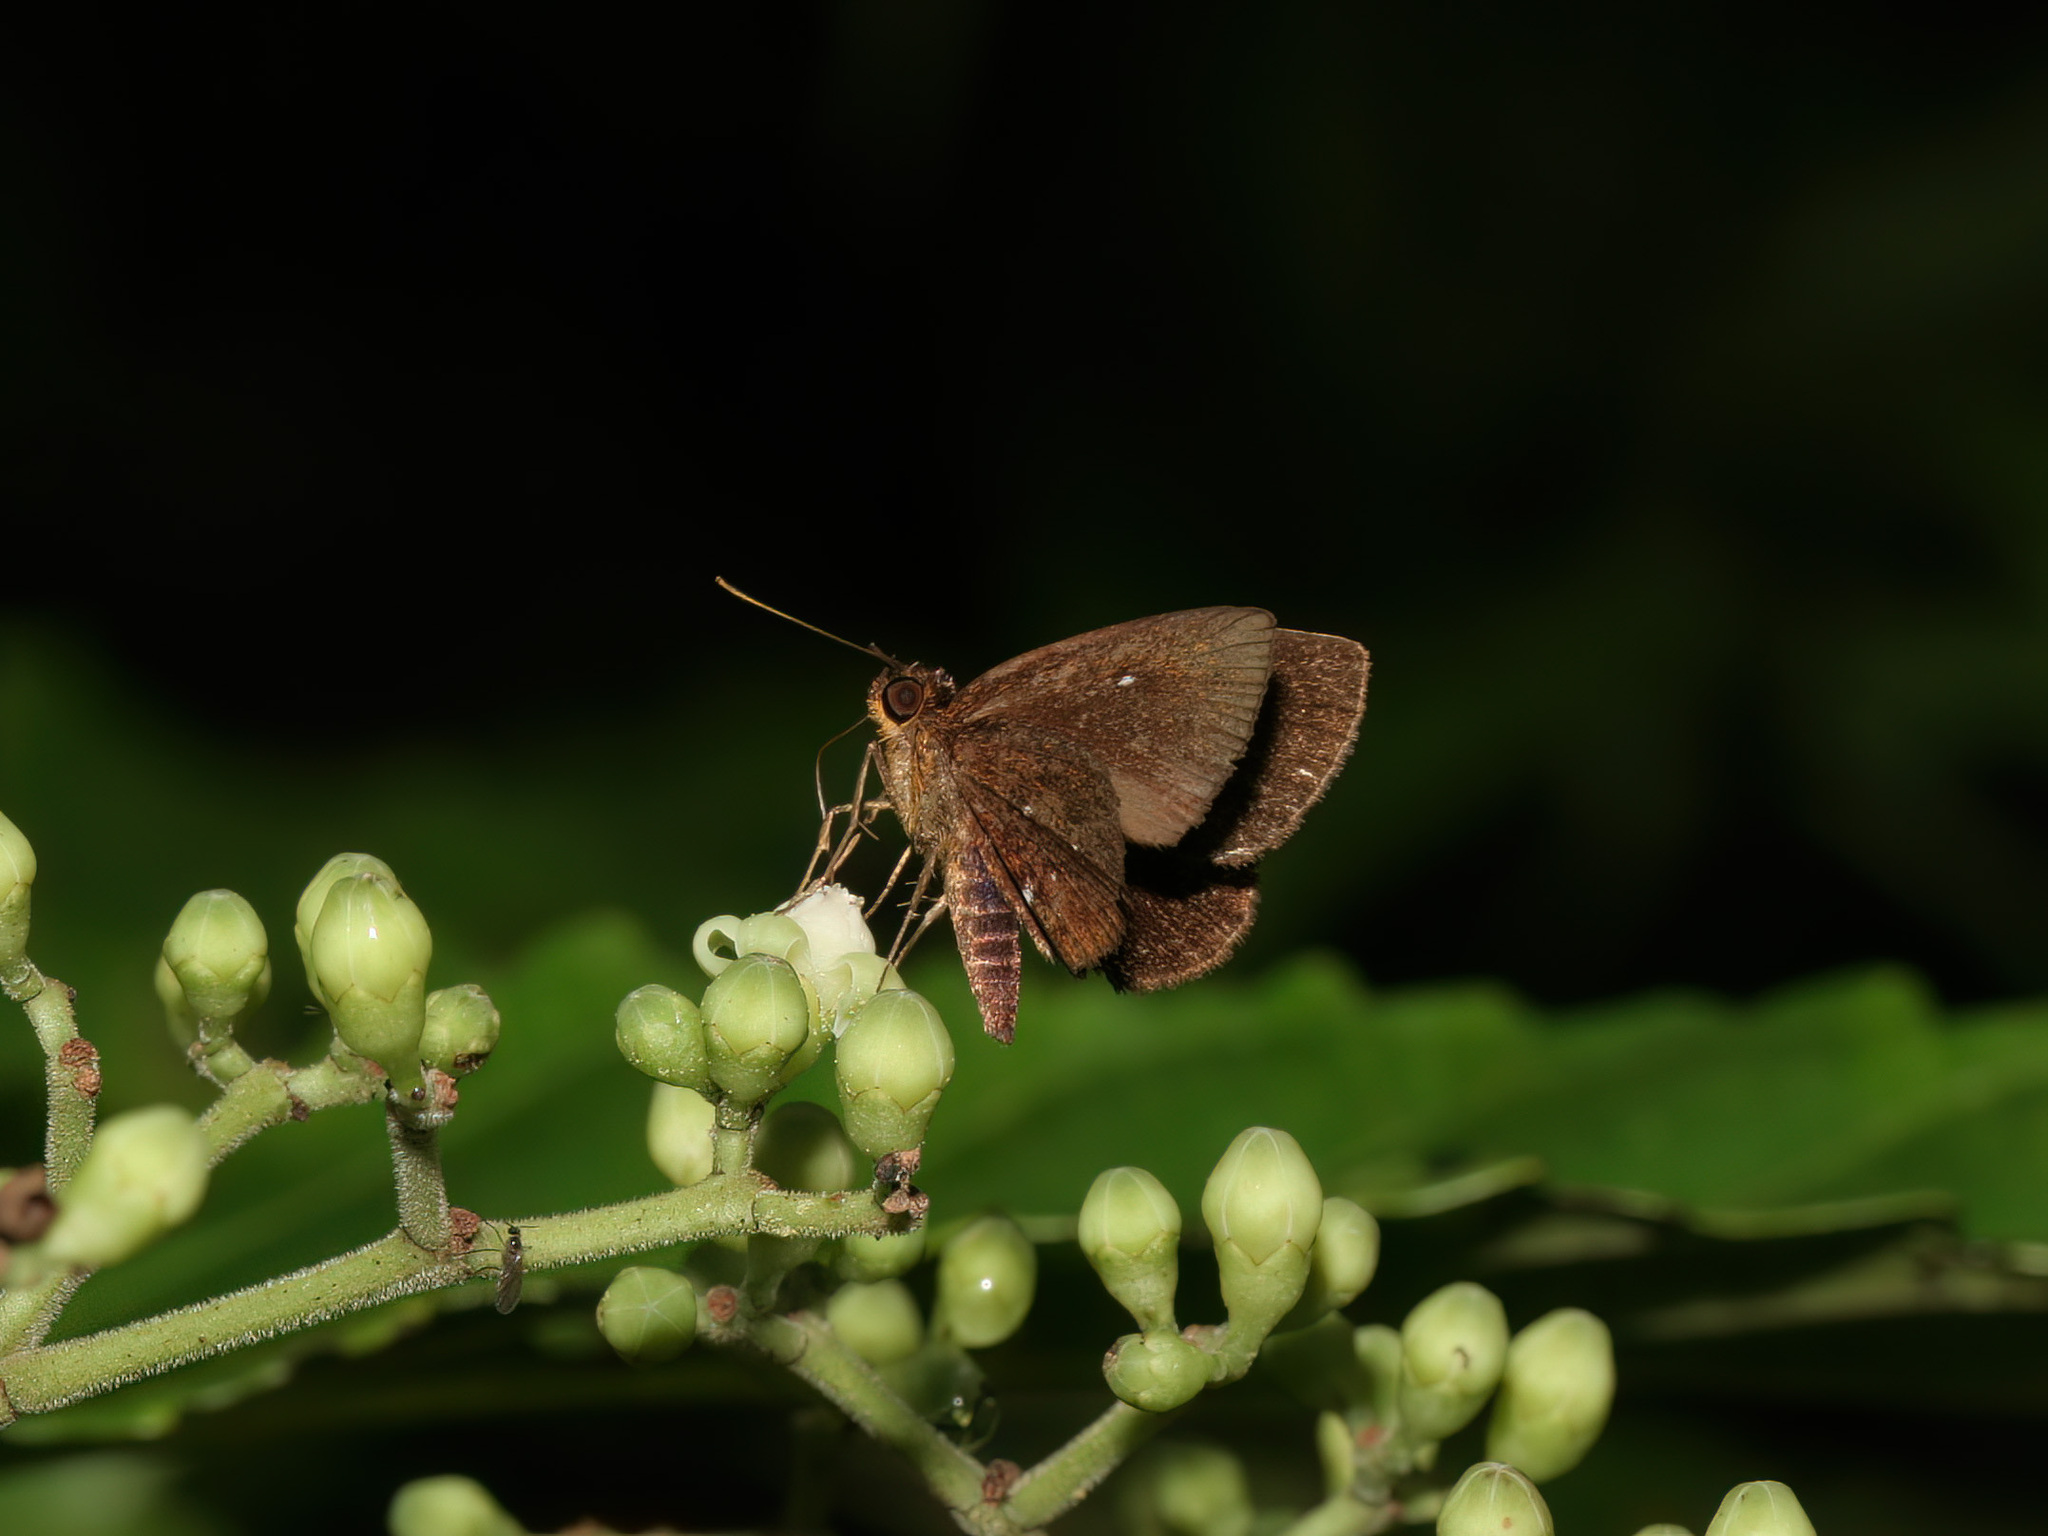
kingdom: Animalia
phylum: Arthropoda
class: Insecta
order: Lepidoptera
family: Hesperiidae
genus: Iambrix
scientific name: Iambrix stellifer
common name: Starry bob
